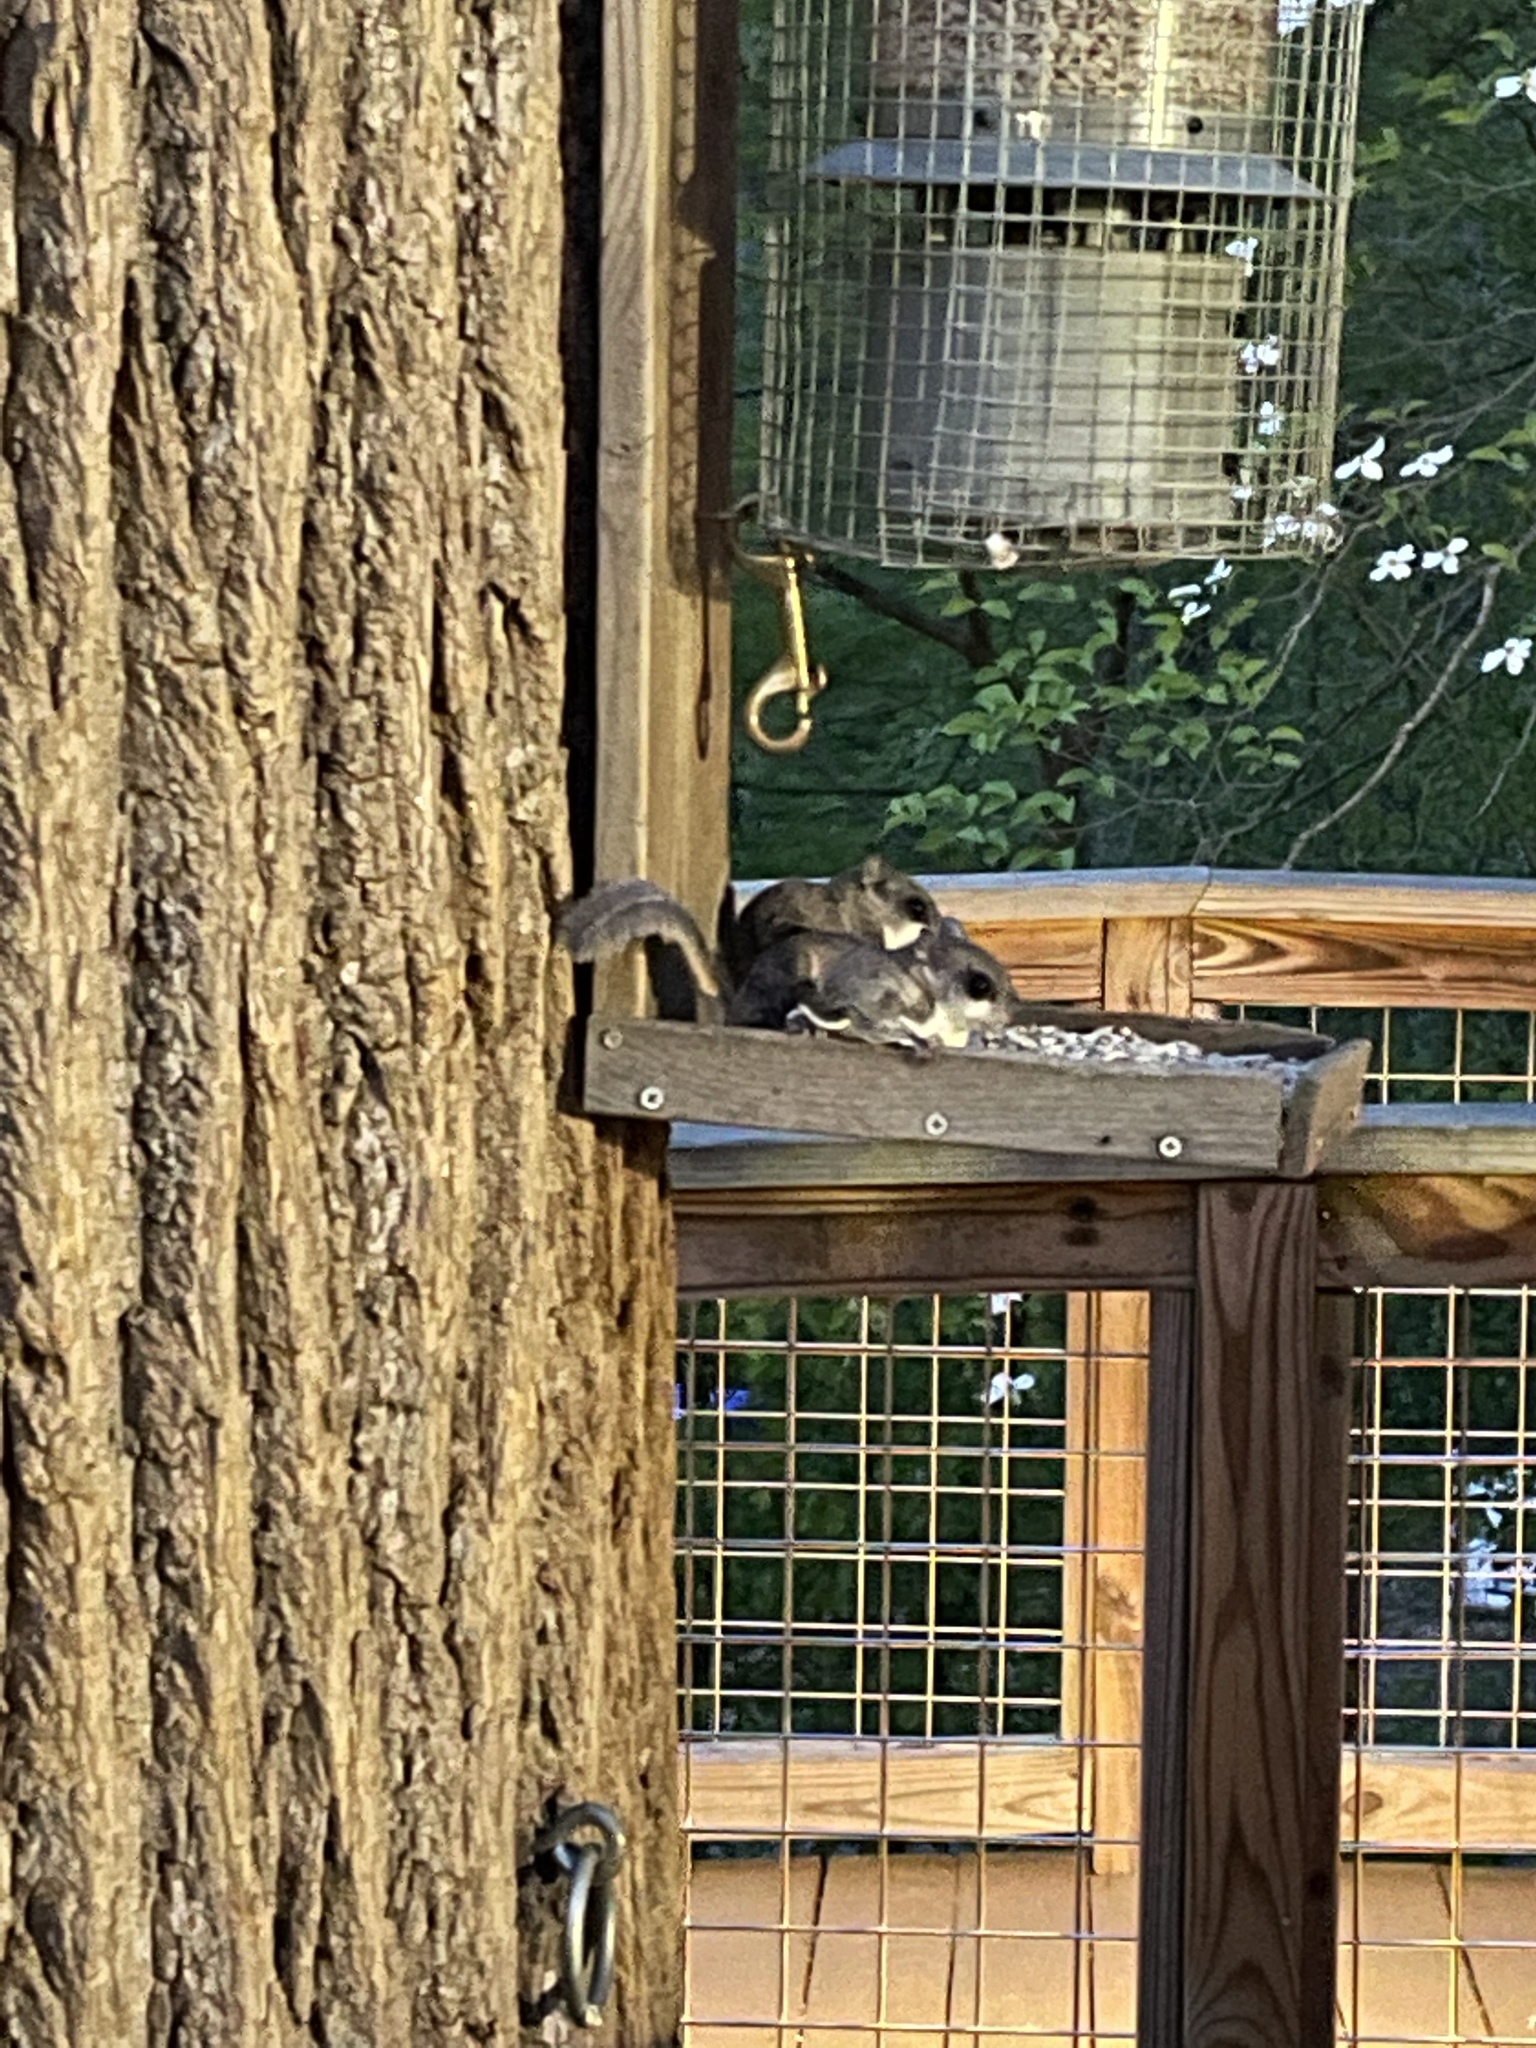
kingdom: Animalia
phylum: Chordata
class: Mammalia
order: Rodentia
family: Sciuridae
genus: Glaucomys
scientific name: Glaucomys volans
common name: Southern flying squirrel
